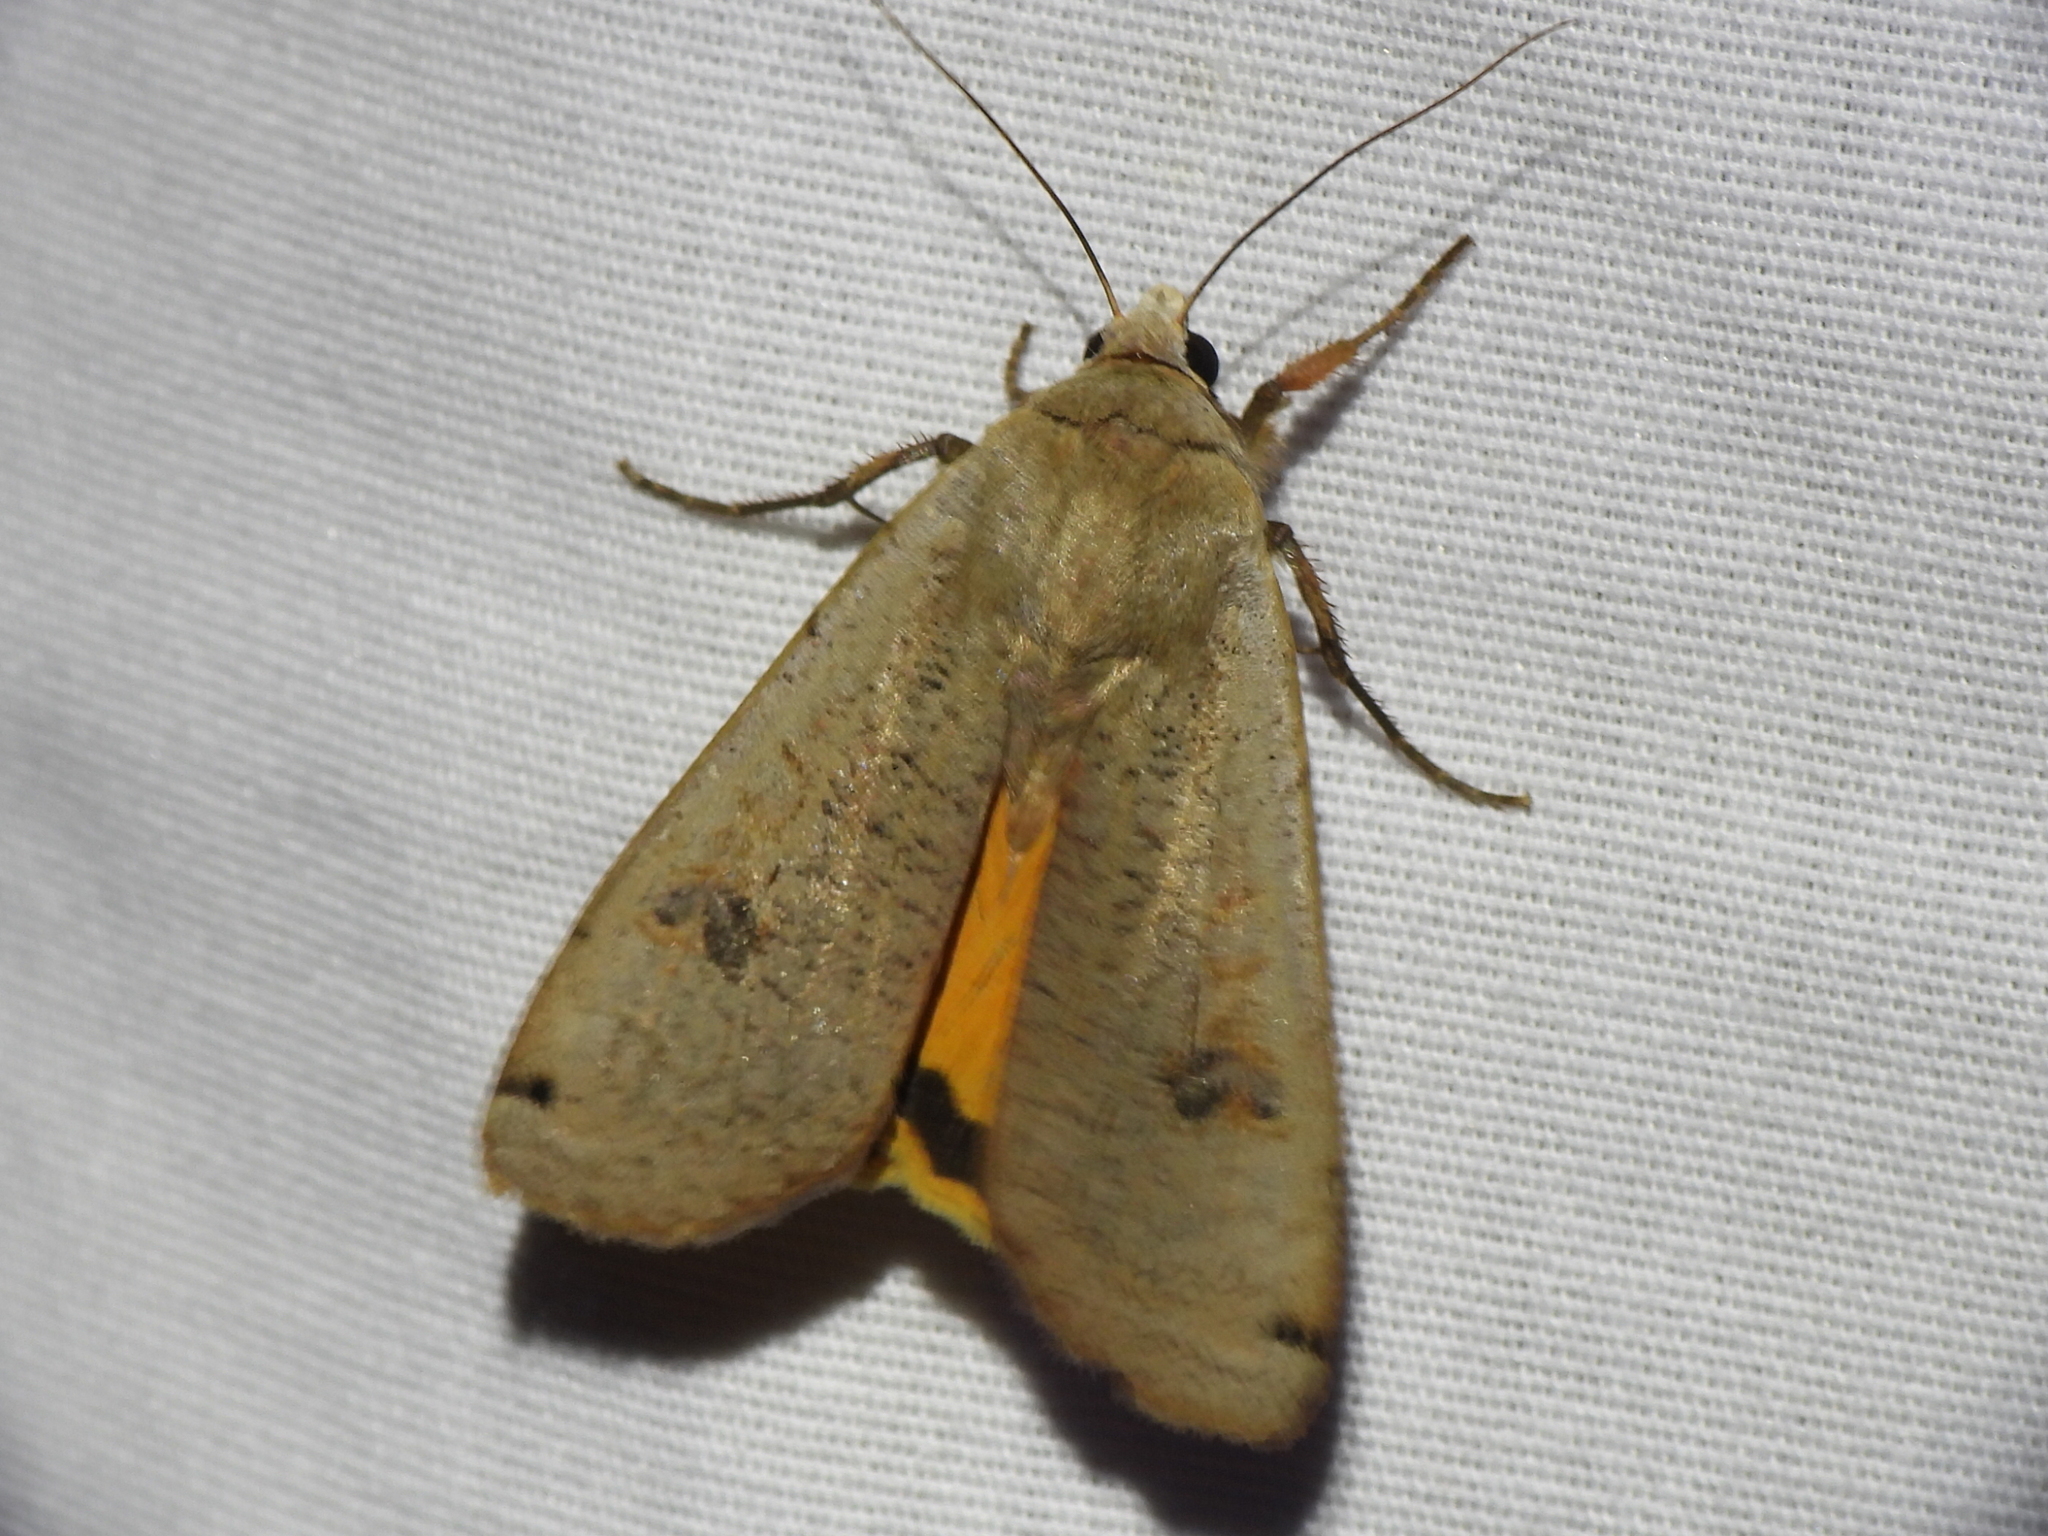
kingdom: Animalia
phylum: Arthropoda
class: Insecta
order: Lepidoptera
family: Noctuidae
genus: Noctua
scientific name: Noctua pronuba
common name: Large yellow underwing
